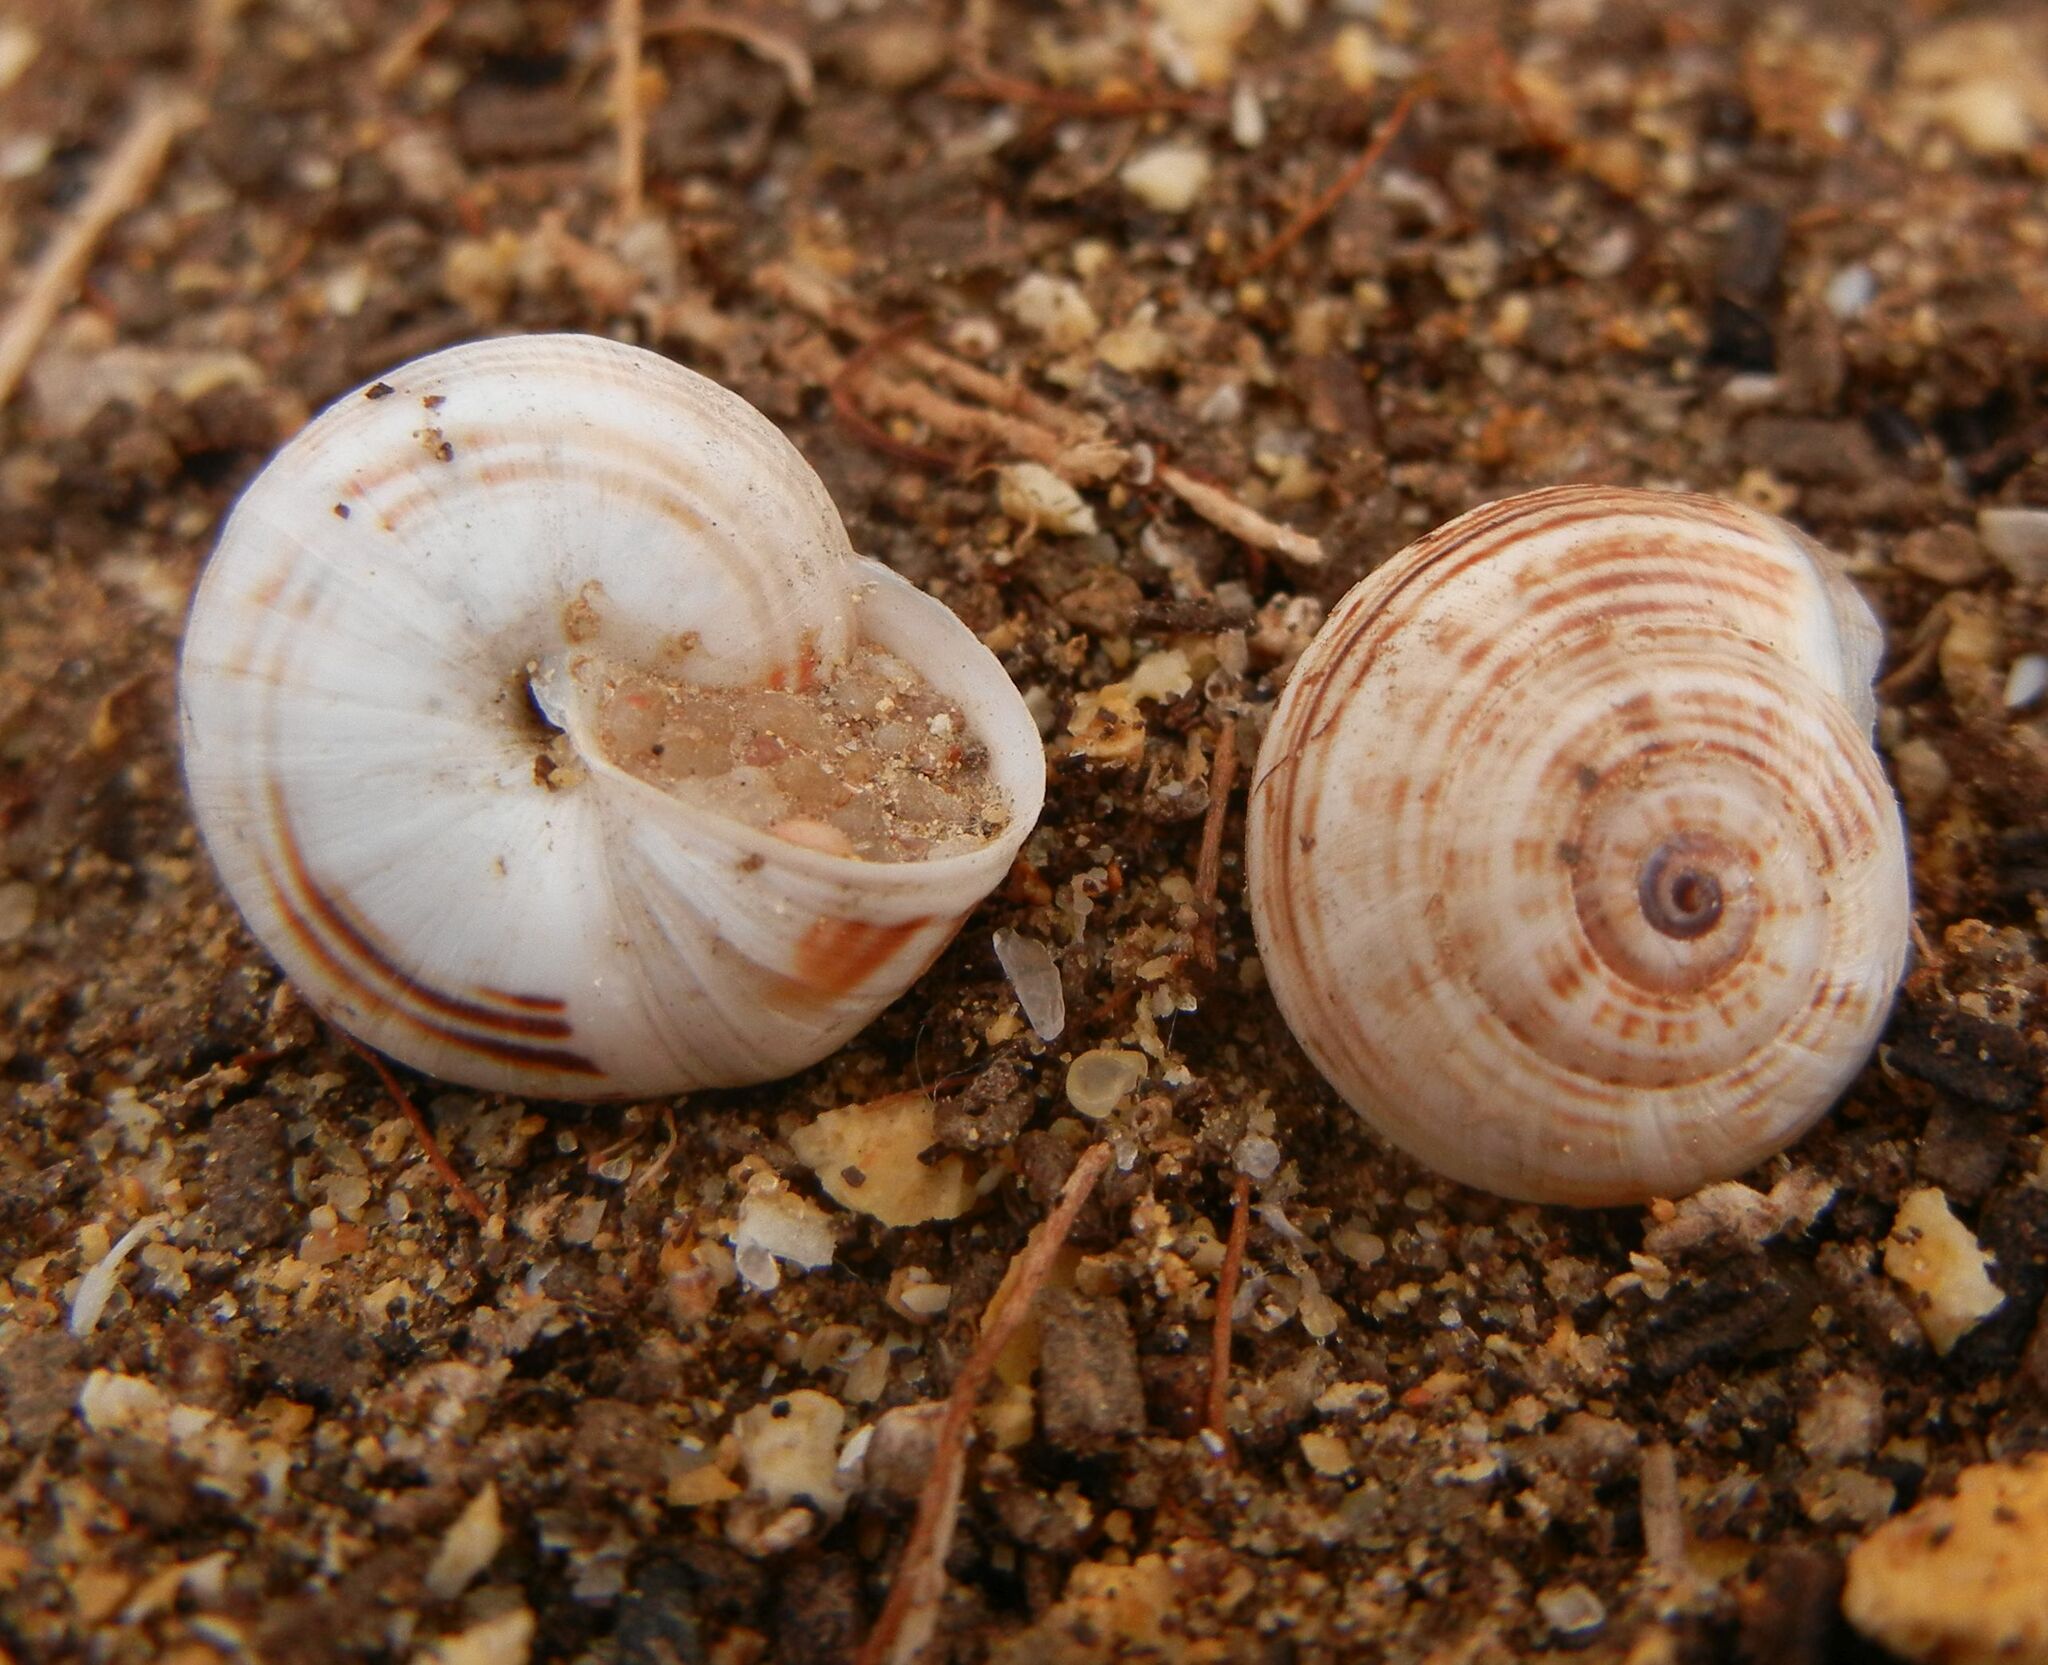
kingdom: Animalia
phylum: Mollusca
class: Gastropoda
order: Stylommatophora
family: Helicidae
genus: Theba
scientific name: Theba pisana
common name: White snail
